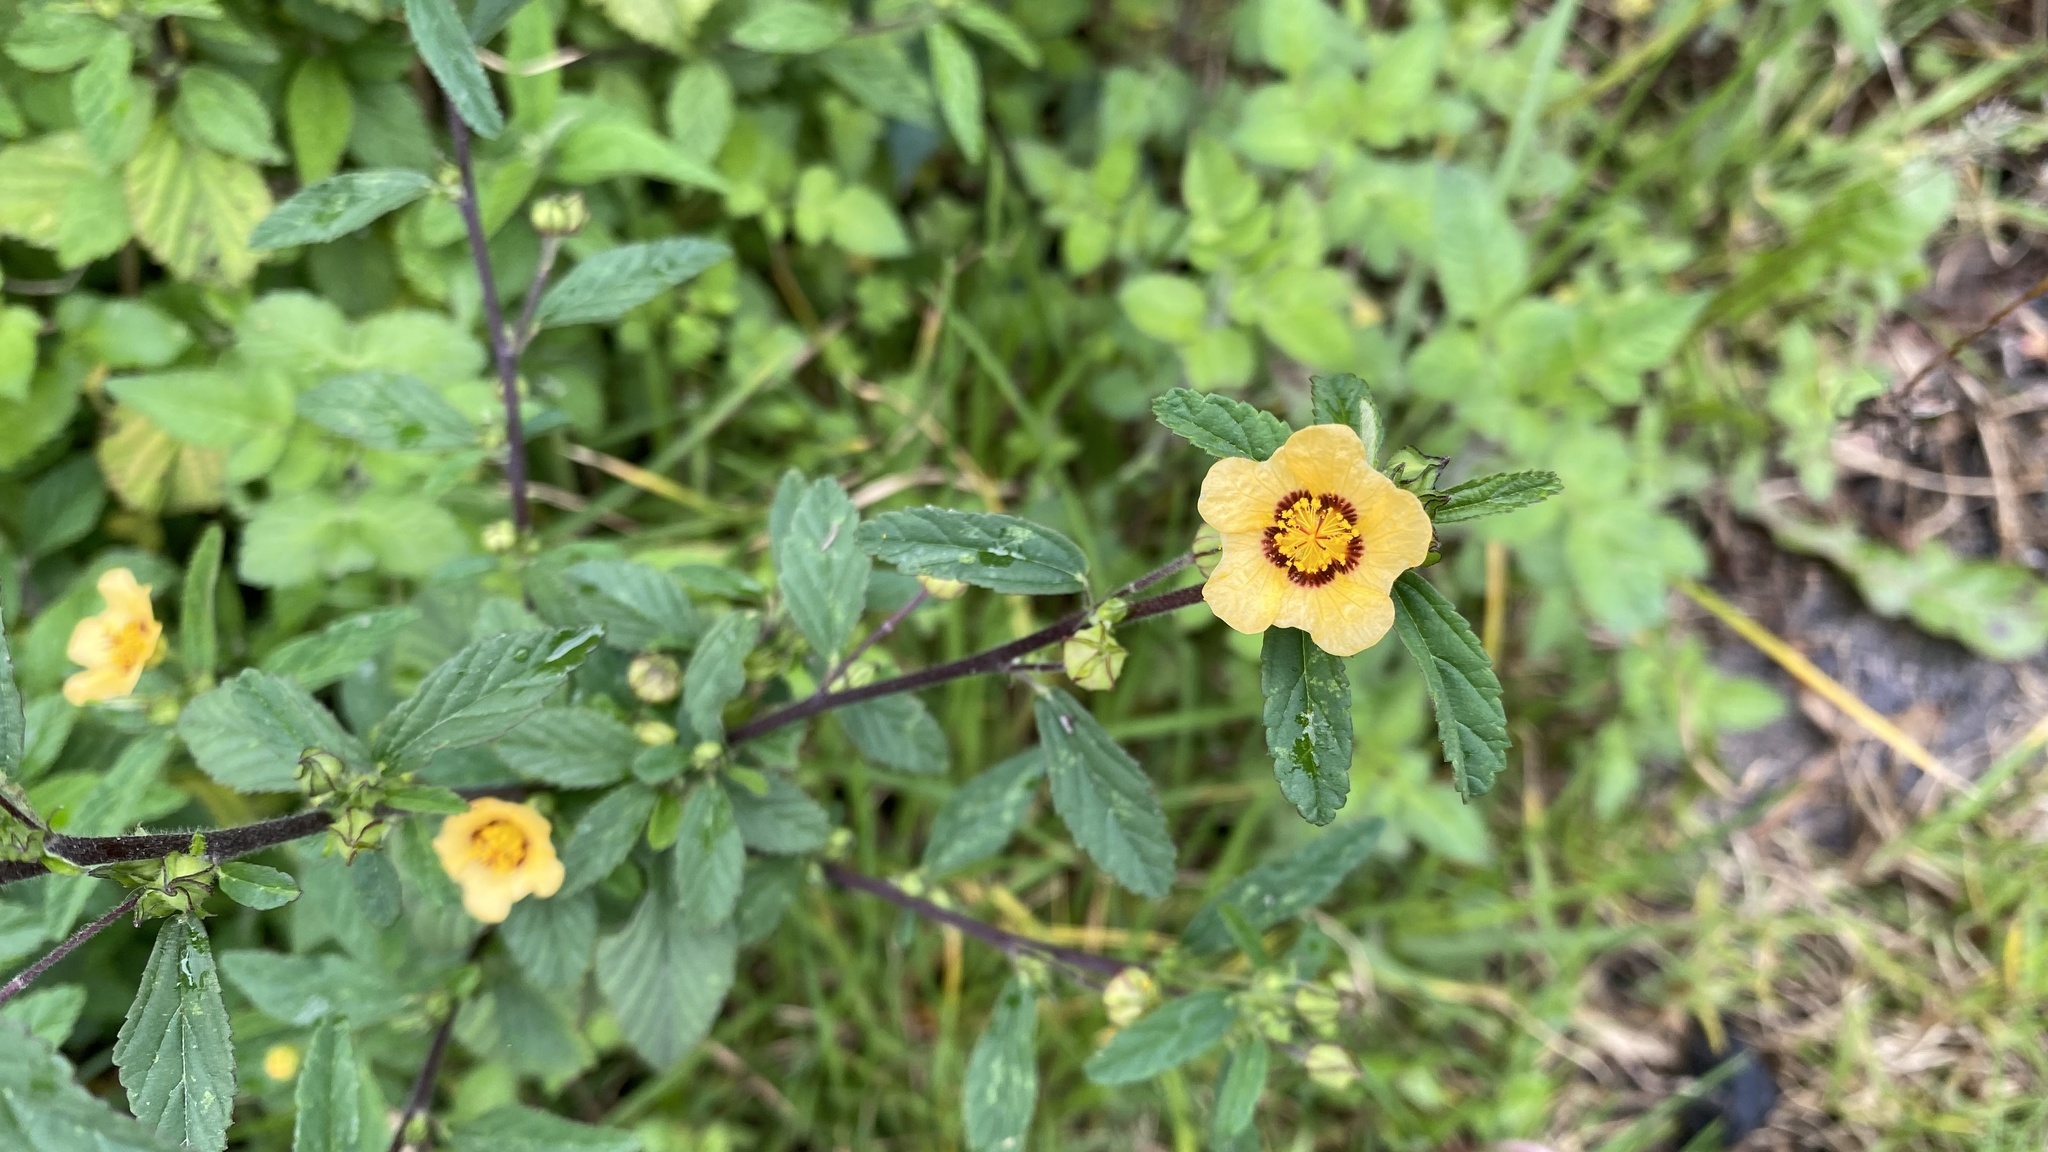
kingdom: Plantae
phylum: Tracheophyta
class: Magnoliopsida
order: Malvales
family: Malvaceae
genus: Sida
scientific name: Sida poeppigiana
